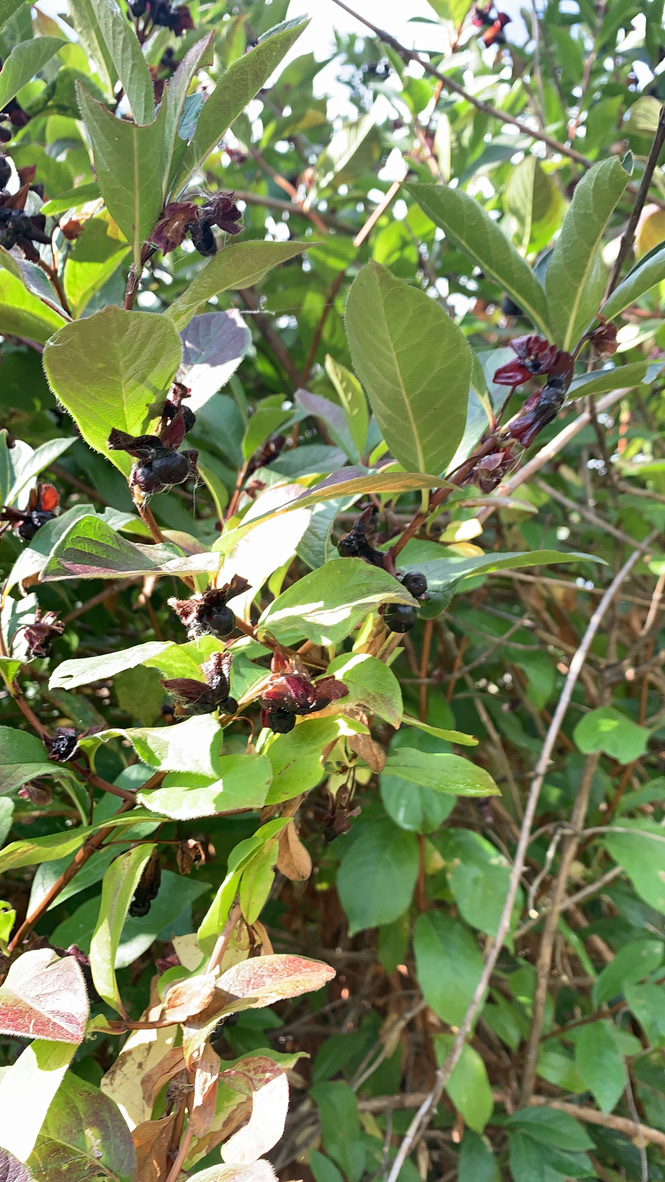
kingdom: Plantae
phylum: Tracheophyta
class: Magnoliopsida
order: Dipsacales
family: Caprifoliaceae
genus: Lonicera
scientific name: Lonicera involucrata
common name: Californian honeysuckle
